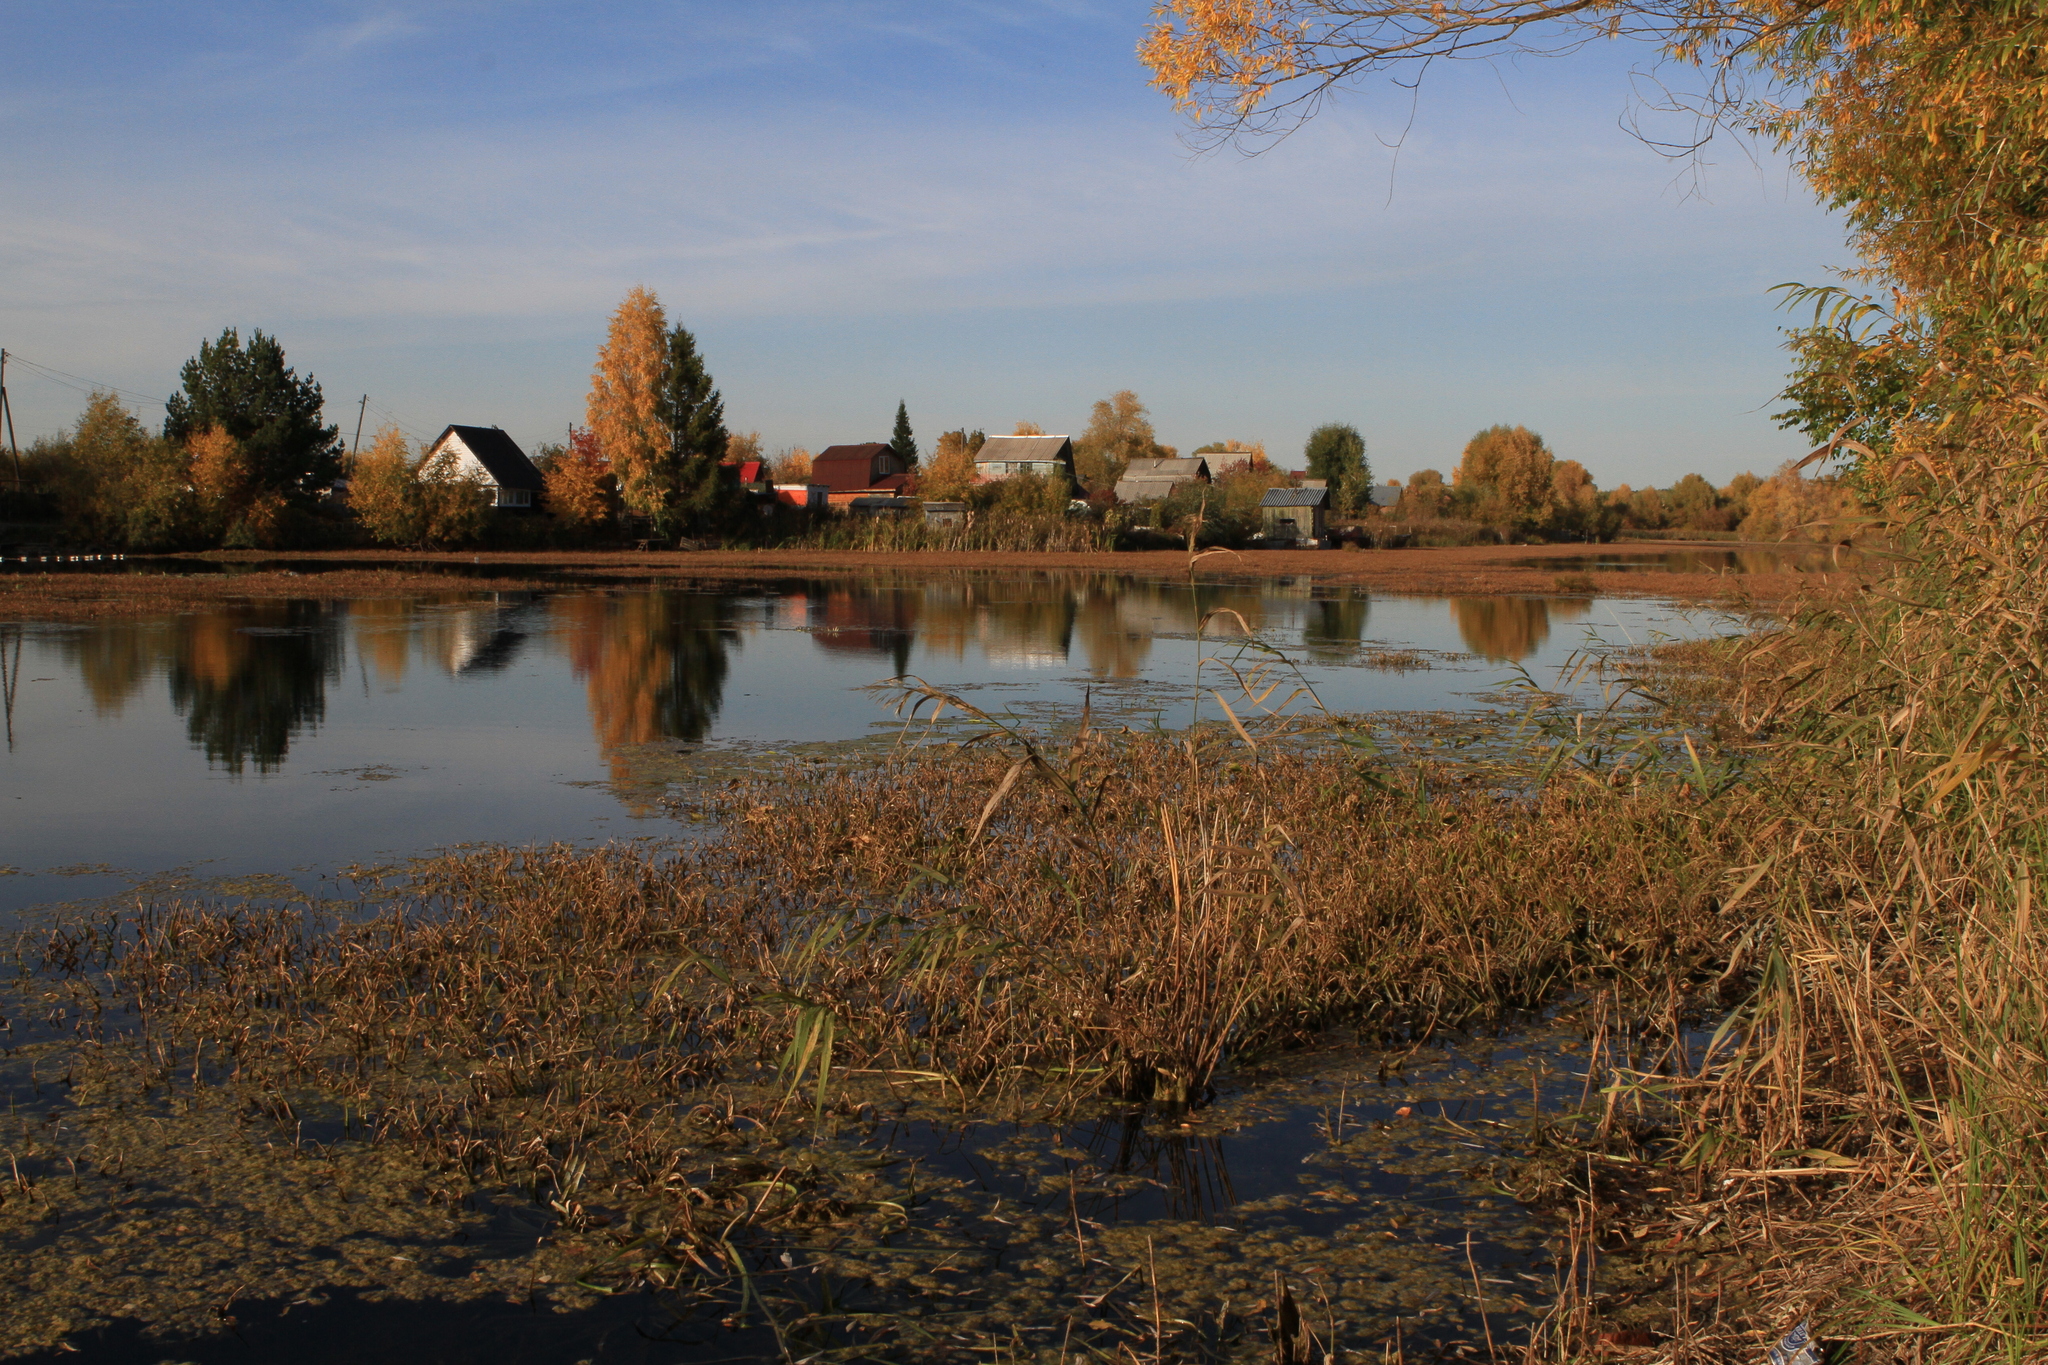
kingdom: Plantae
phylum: Tracheophyta
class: Liliopsida
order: Alismatales
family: Hydrocharitaceae
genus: Stratiotes
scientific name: Stratiotes aloides
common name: Water-soldier
